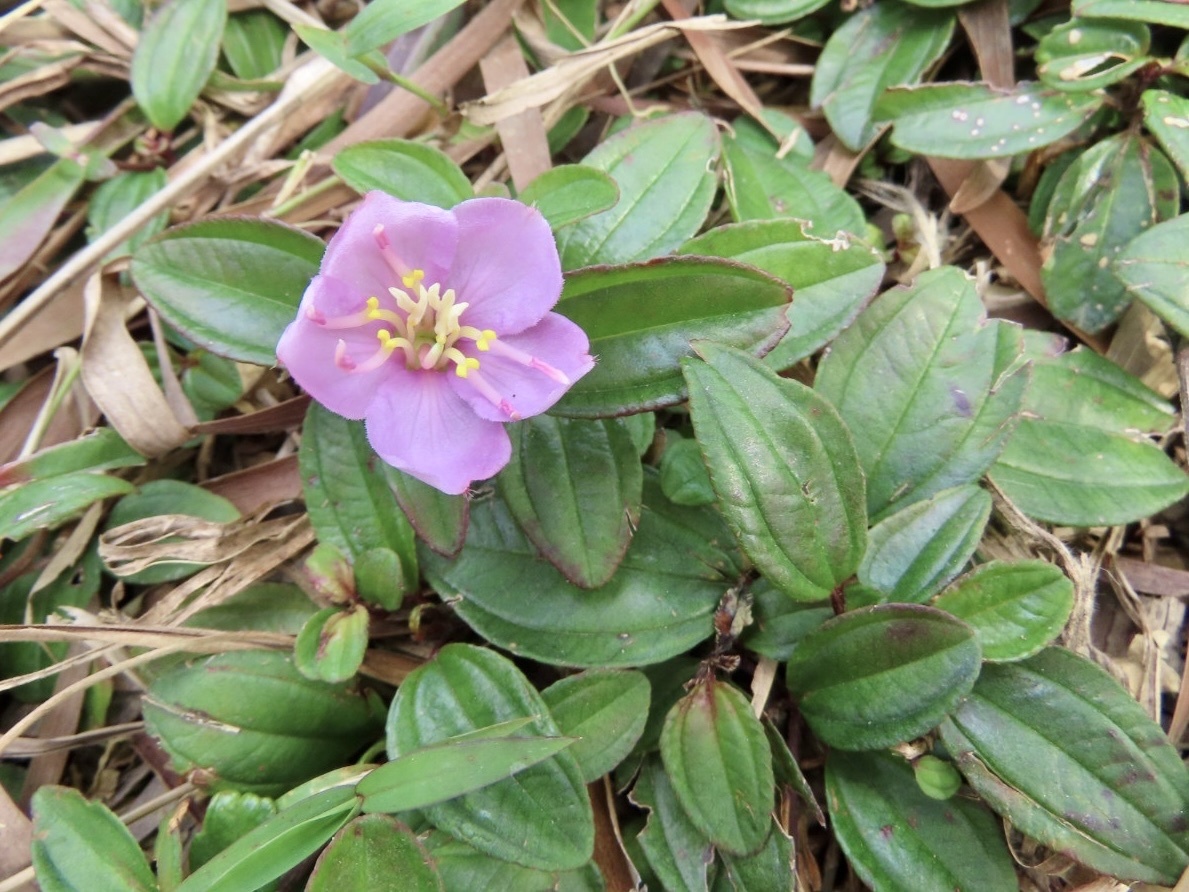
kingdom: Plantae
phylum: Tracheophyta
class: Magnoliopsida
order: Myrtales
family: Melastomataceae
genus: Melastoma
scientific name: Melastoma dodecandrum
